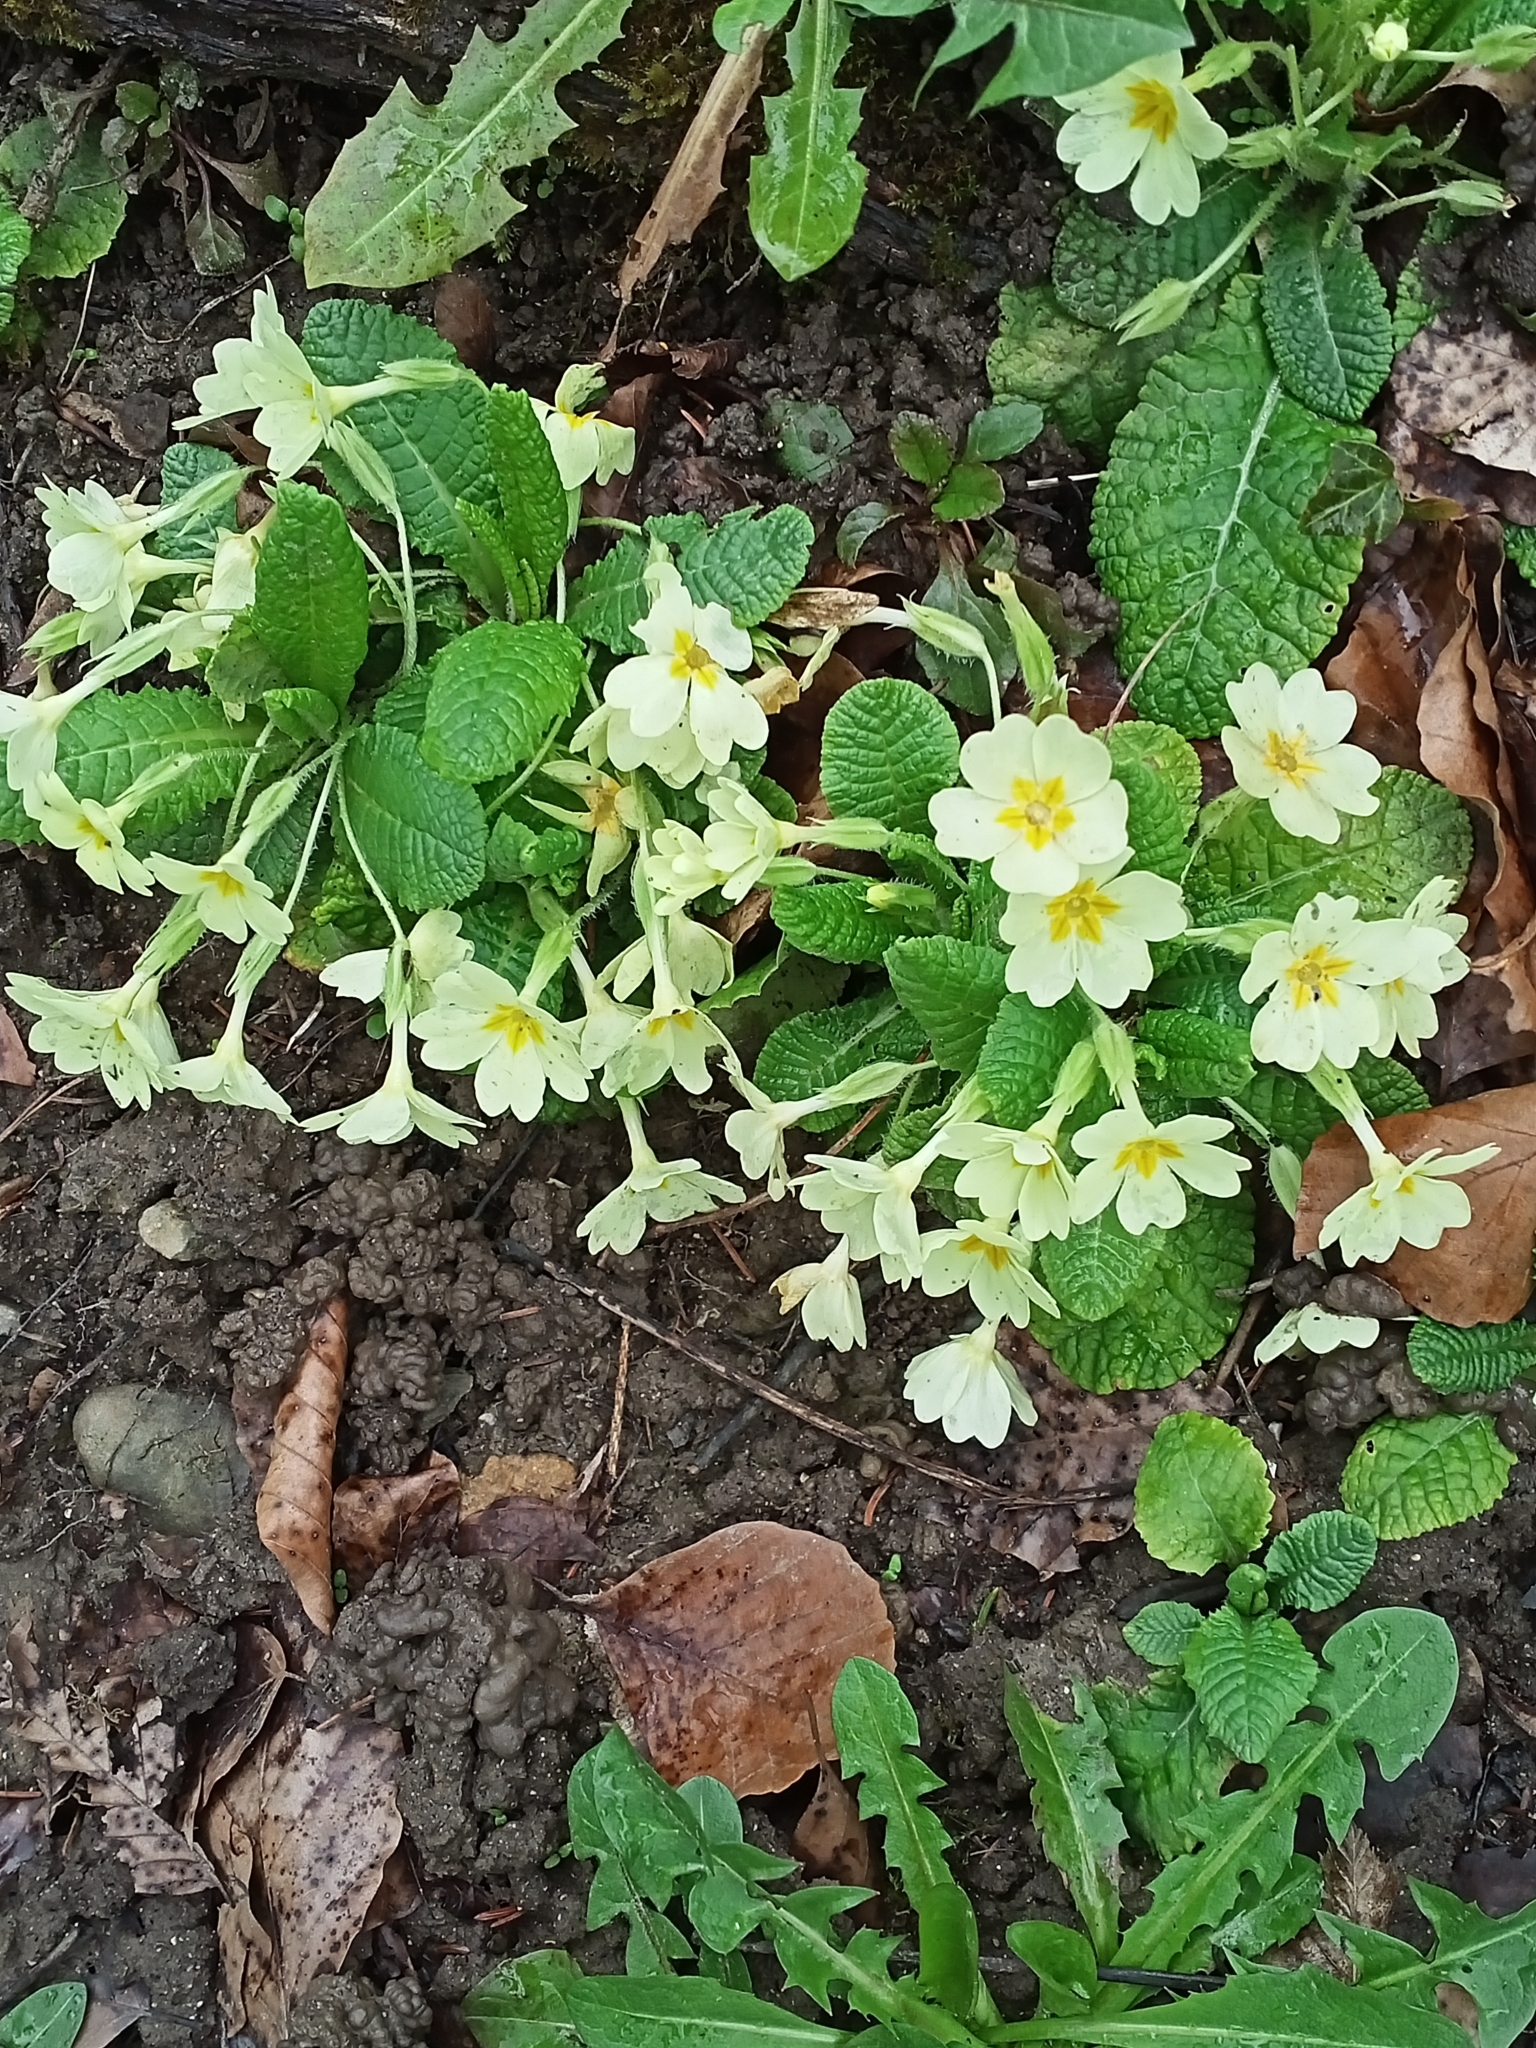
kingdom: Plantae
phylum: Tracheophyta
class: Magnoliopsida
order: Ericales
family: Primulaceae
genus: Primula
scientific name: Primula vulgaris
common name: Primrose
